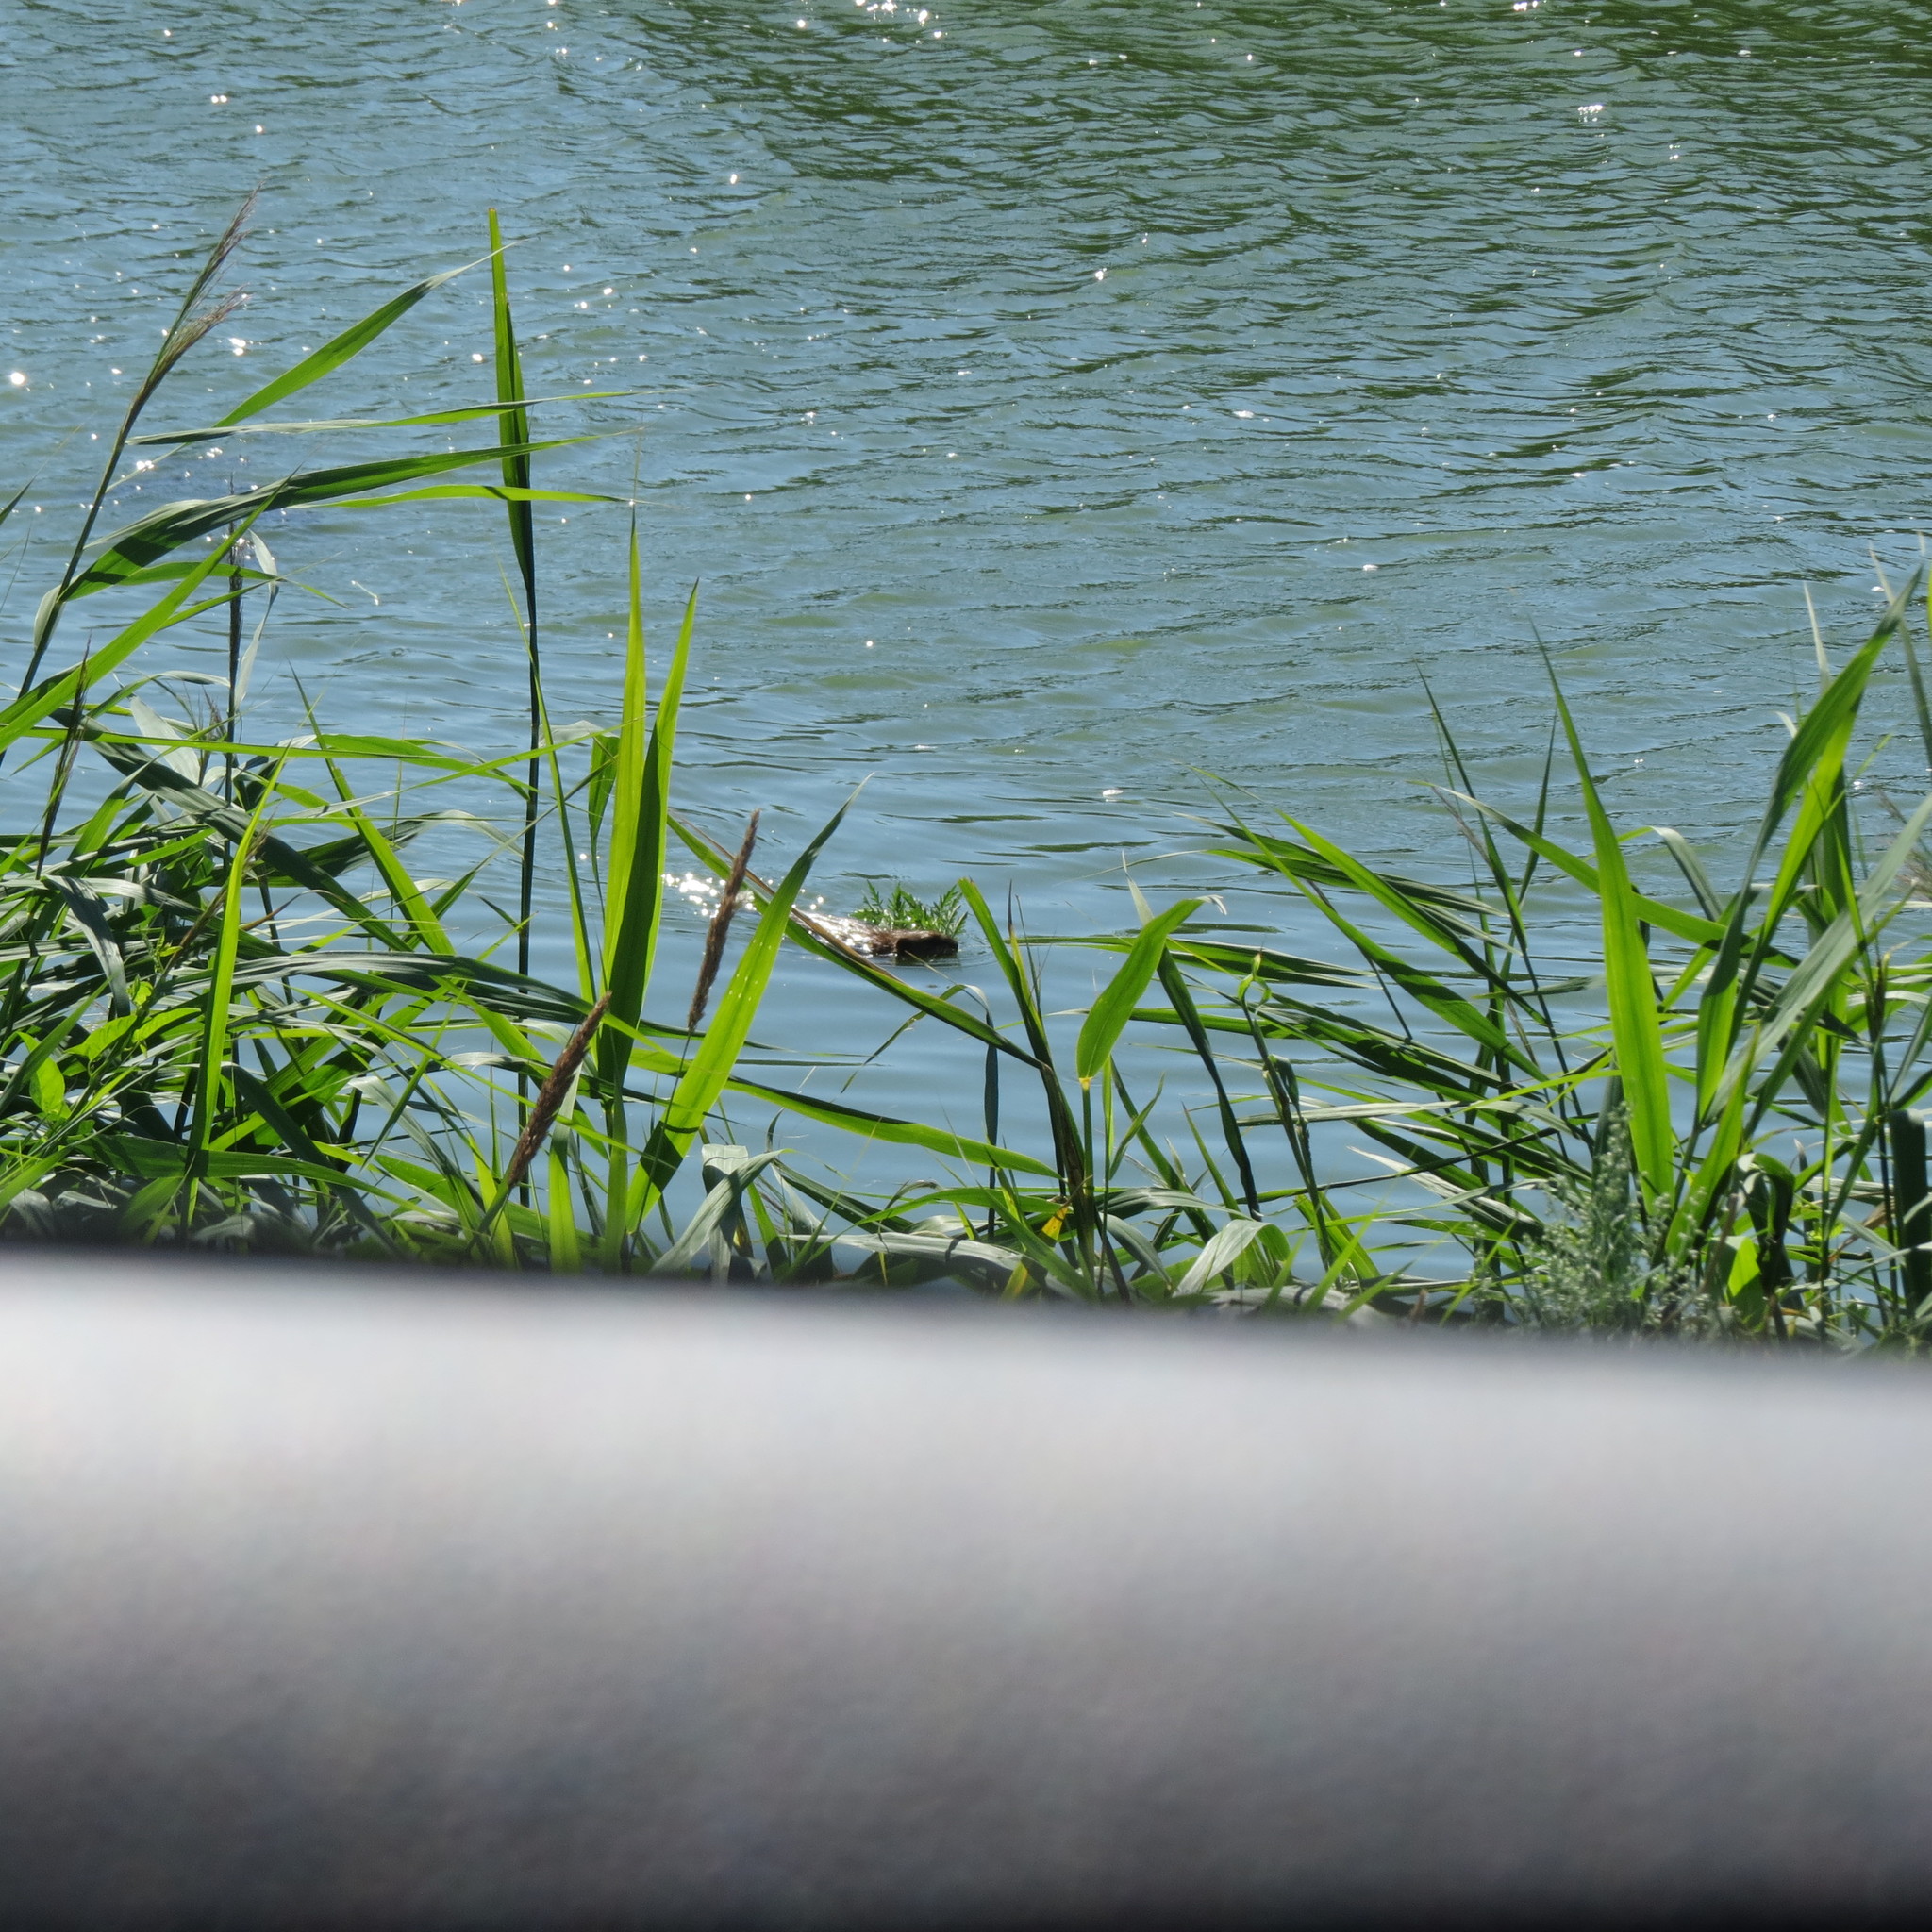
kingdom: Animalia
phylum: Chordata
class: Mammalia
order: Rodentia
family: Cricetidae
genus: Ondatra
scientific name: Ondatra zibethicus
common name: Muskrat
